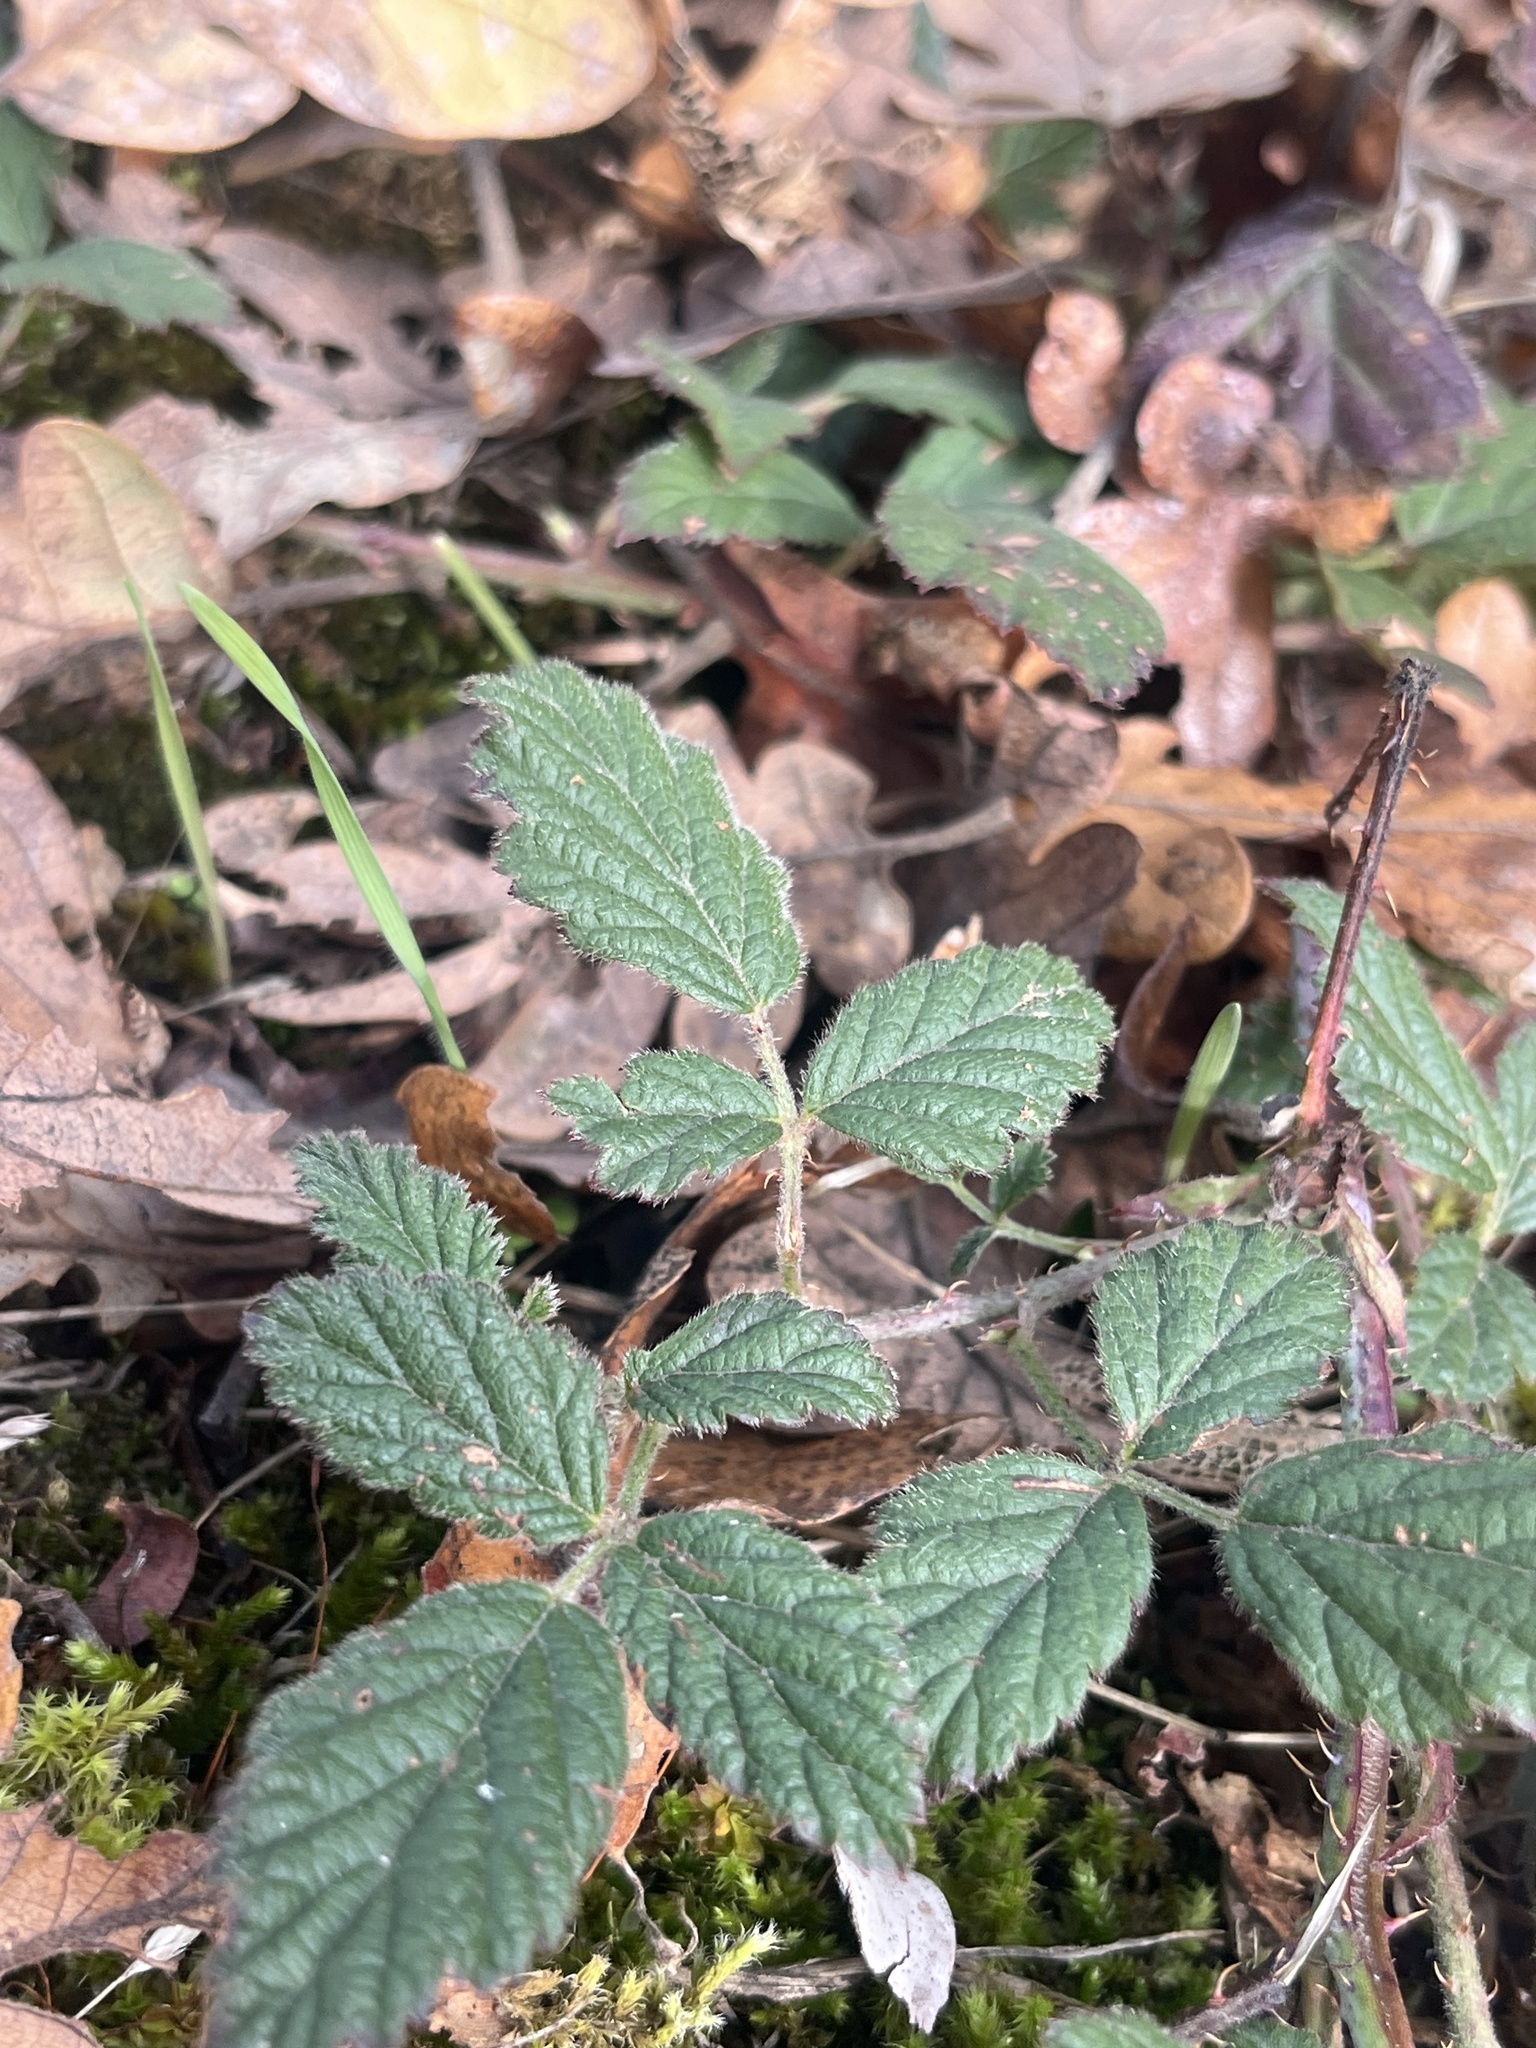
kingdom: Plantae
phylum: Tracheophyta
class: Magnoliopsida
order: Rosales
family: Rosaceae
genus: Rubus
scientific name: Rubus ursinus
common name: Pacific blackberry
